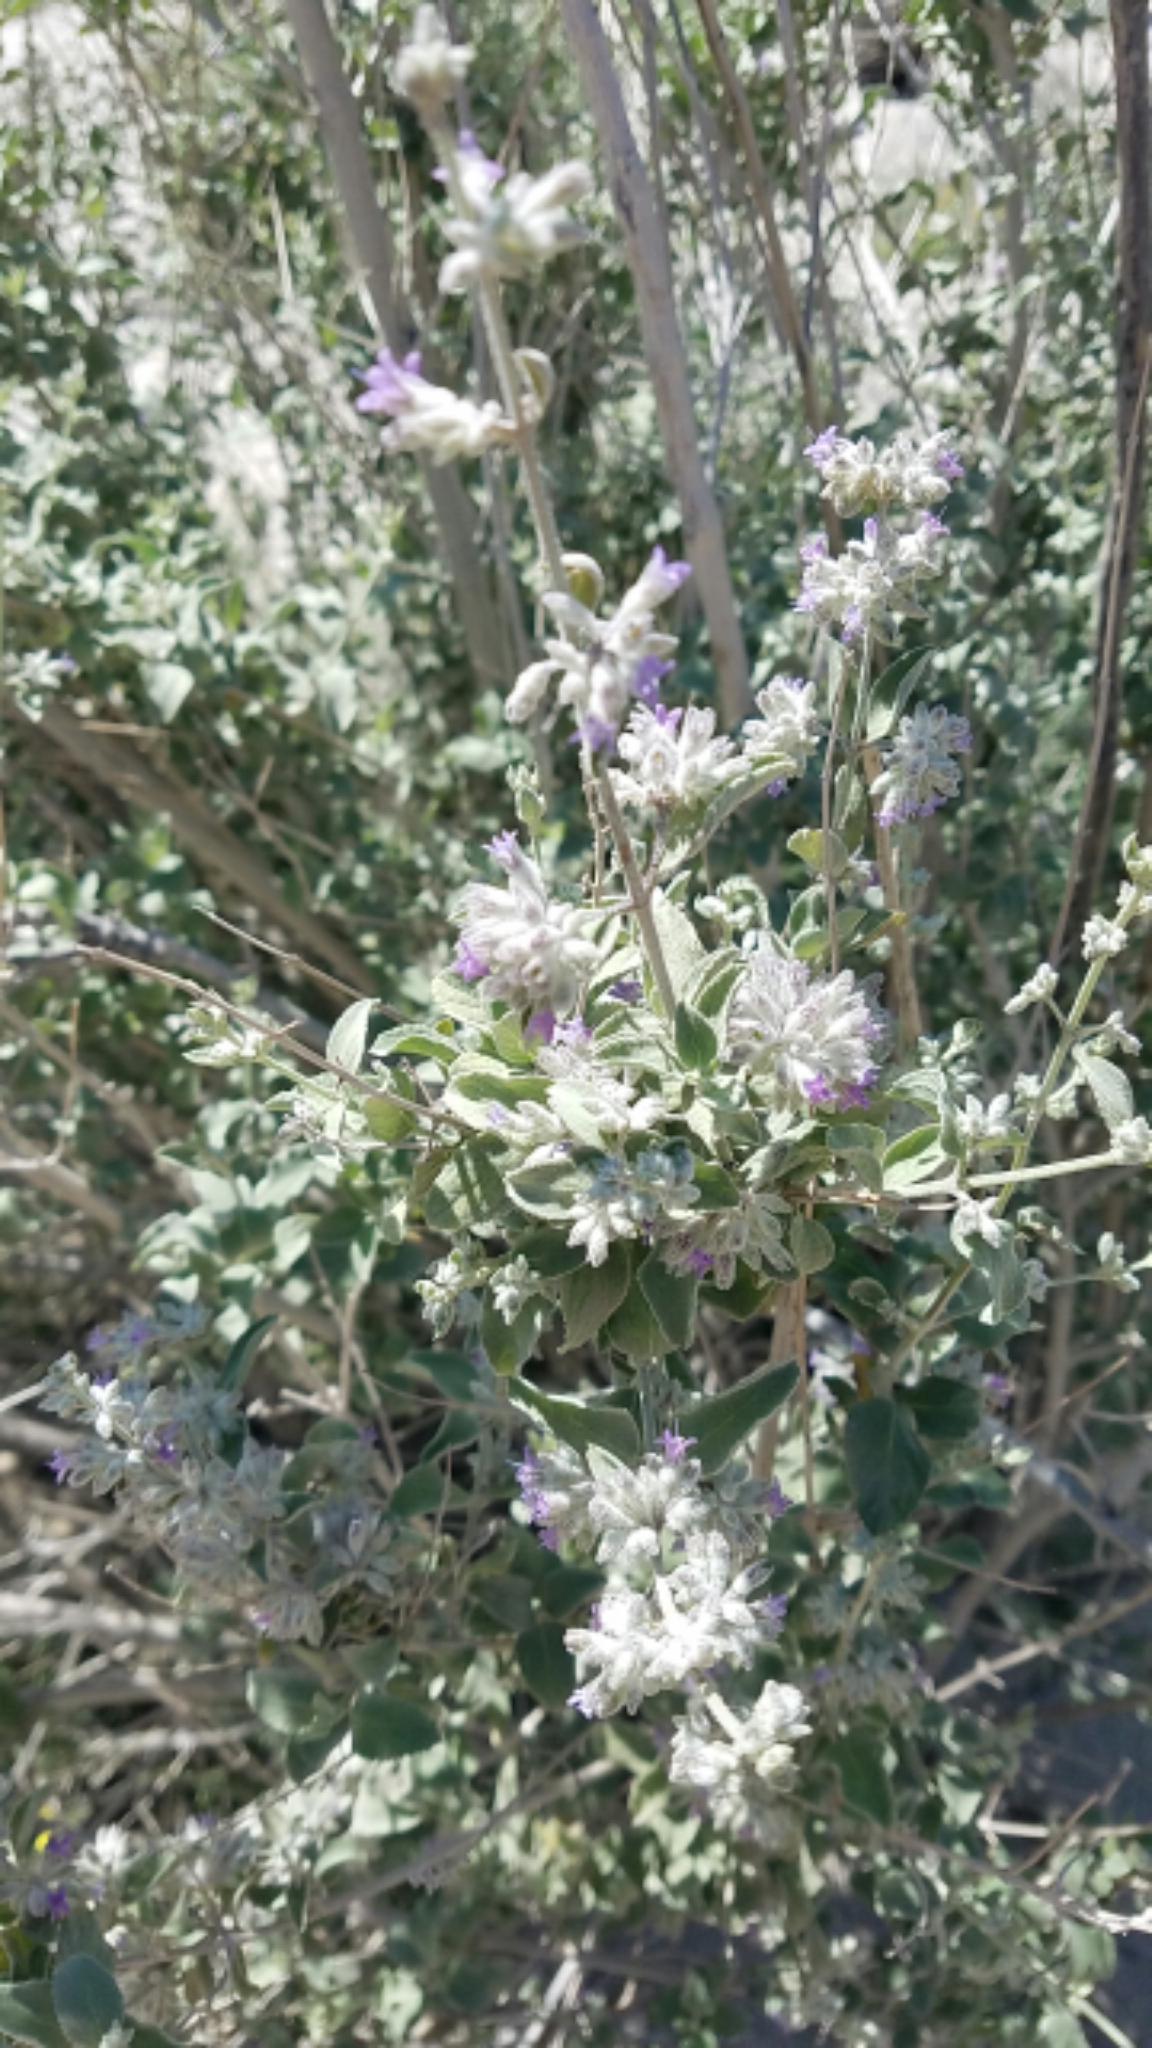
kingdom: Plantae
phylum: Tracheophyta
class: Magnoliopsida
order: Lamiales
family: Lamiaceae
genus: Condea
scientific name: Condea emoryi
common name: Chia
